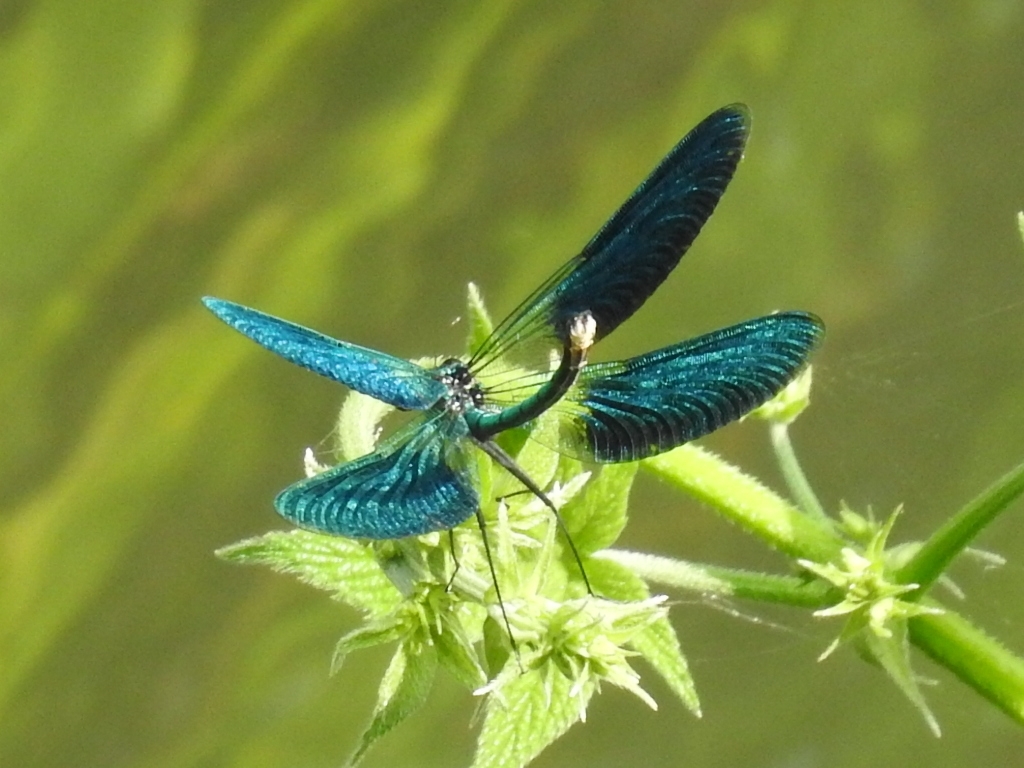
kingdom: Animalia
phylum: Arthropoda
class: Insecta
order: Odonata
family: Calopterygidae
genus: Calopteryx
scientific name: Calopteryx splendens
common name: Banded demoiselle
